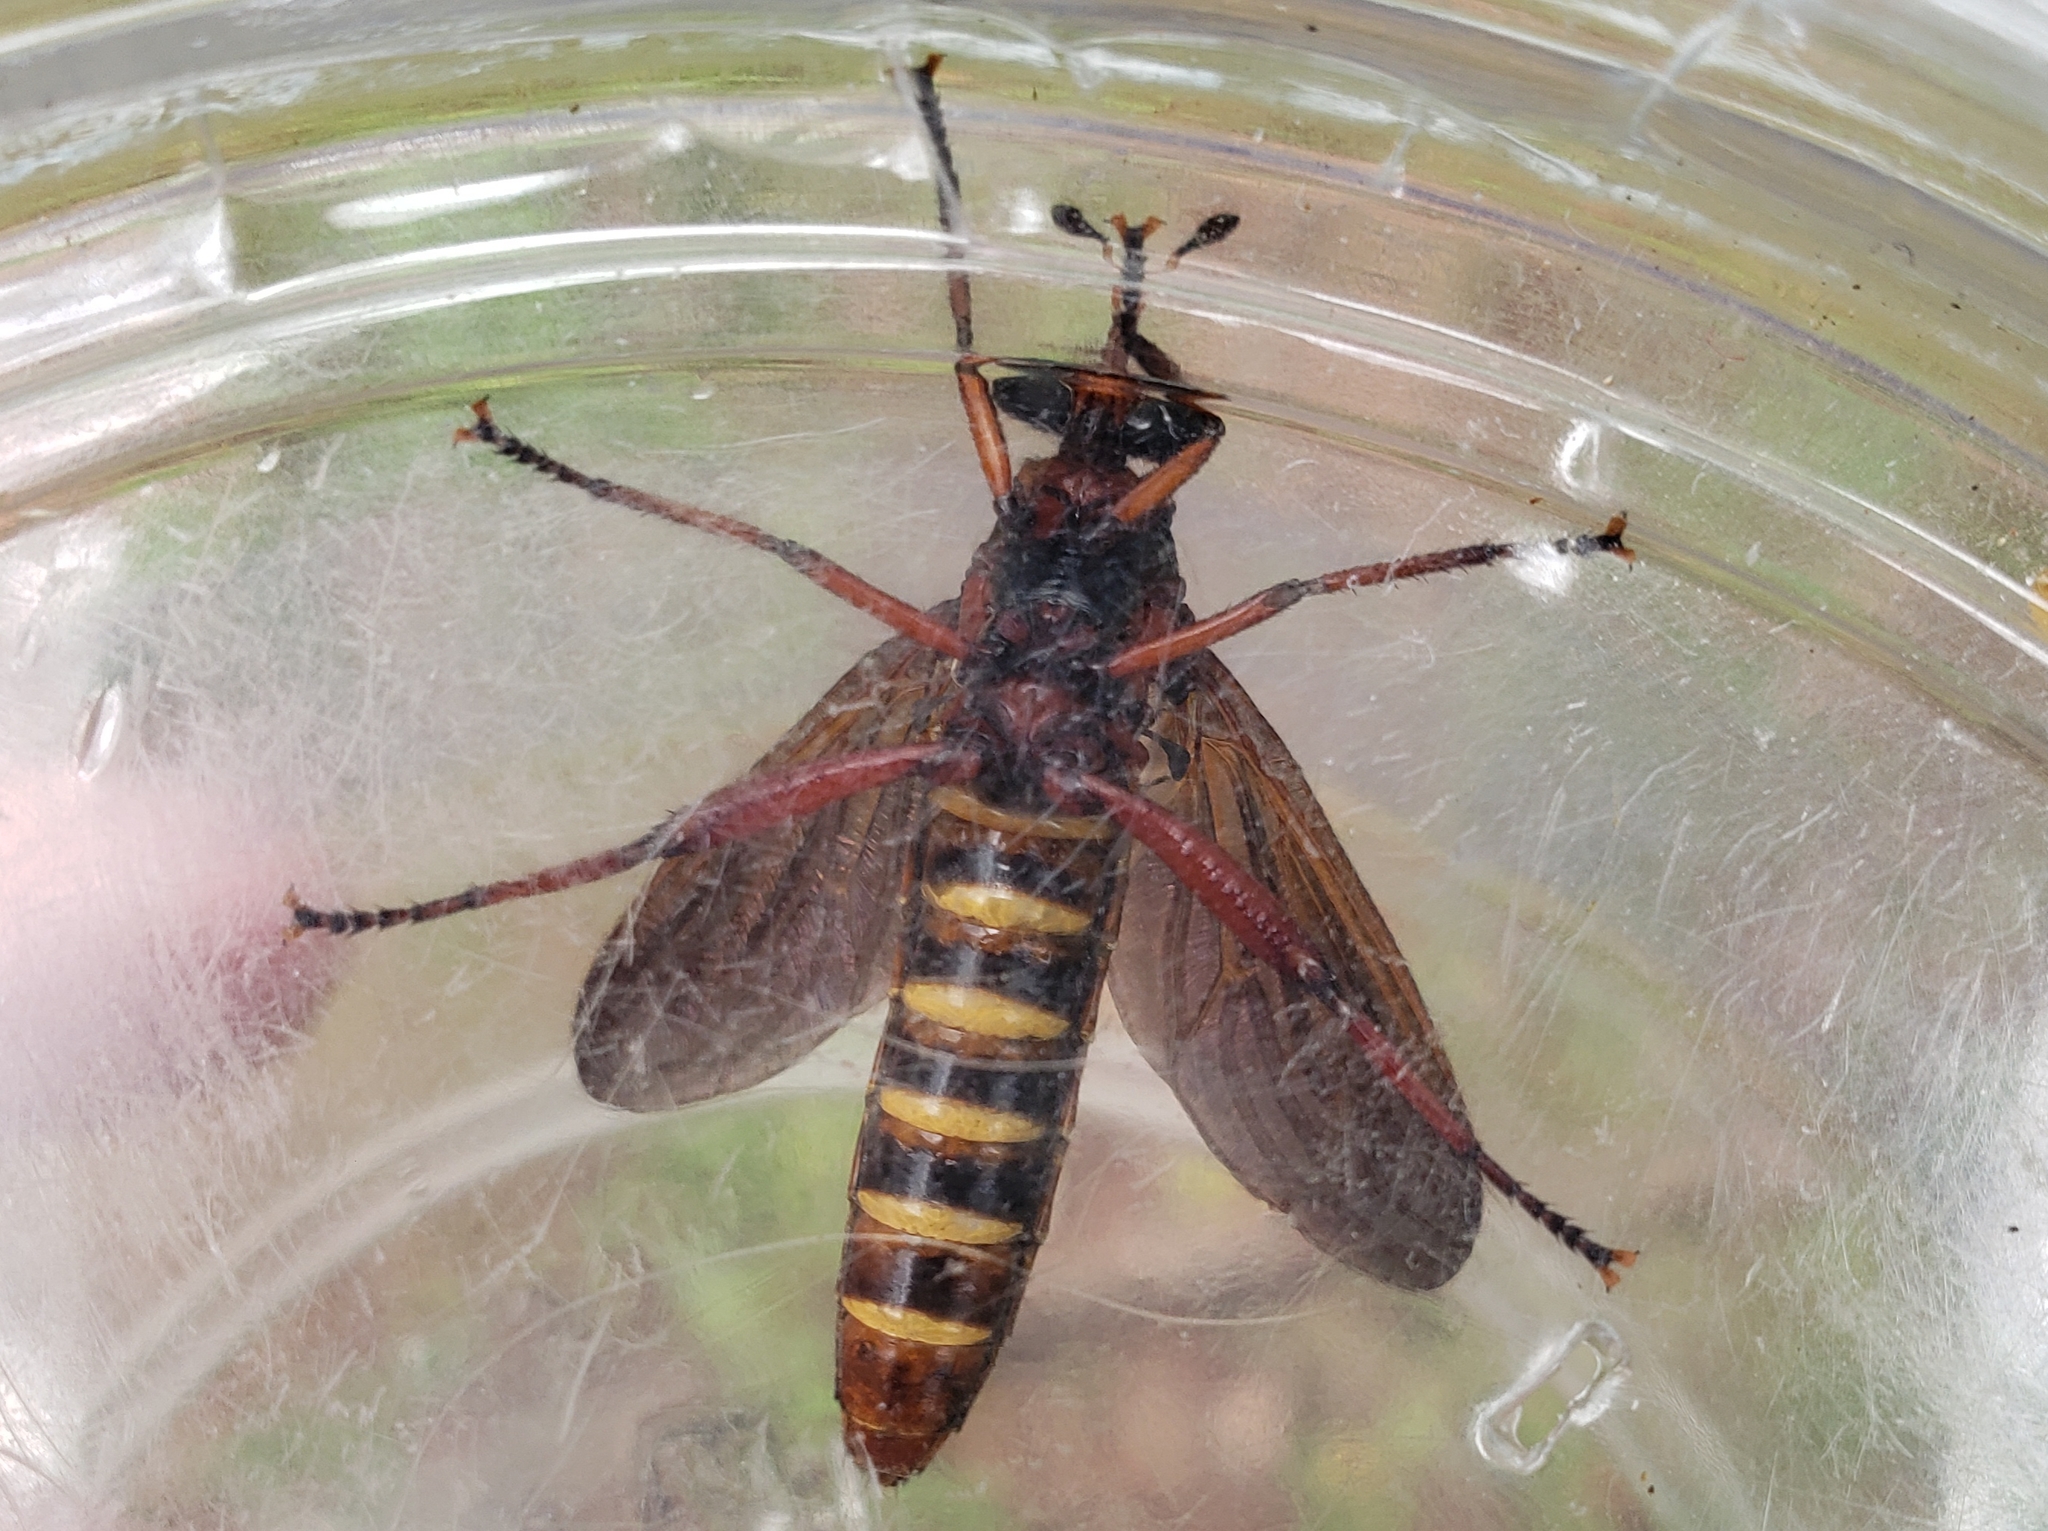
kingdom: Animalia
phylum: Arthropoda
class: Insecta
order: Diptera
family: Mydidae
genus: Mydas
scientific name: Mydas maculiventris
